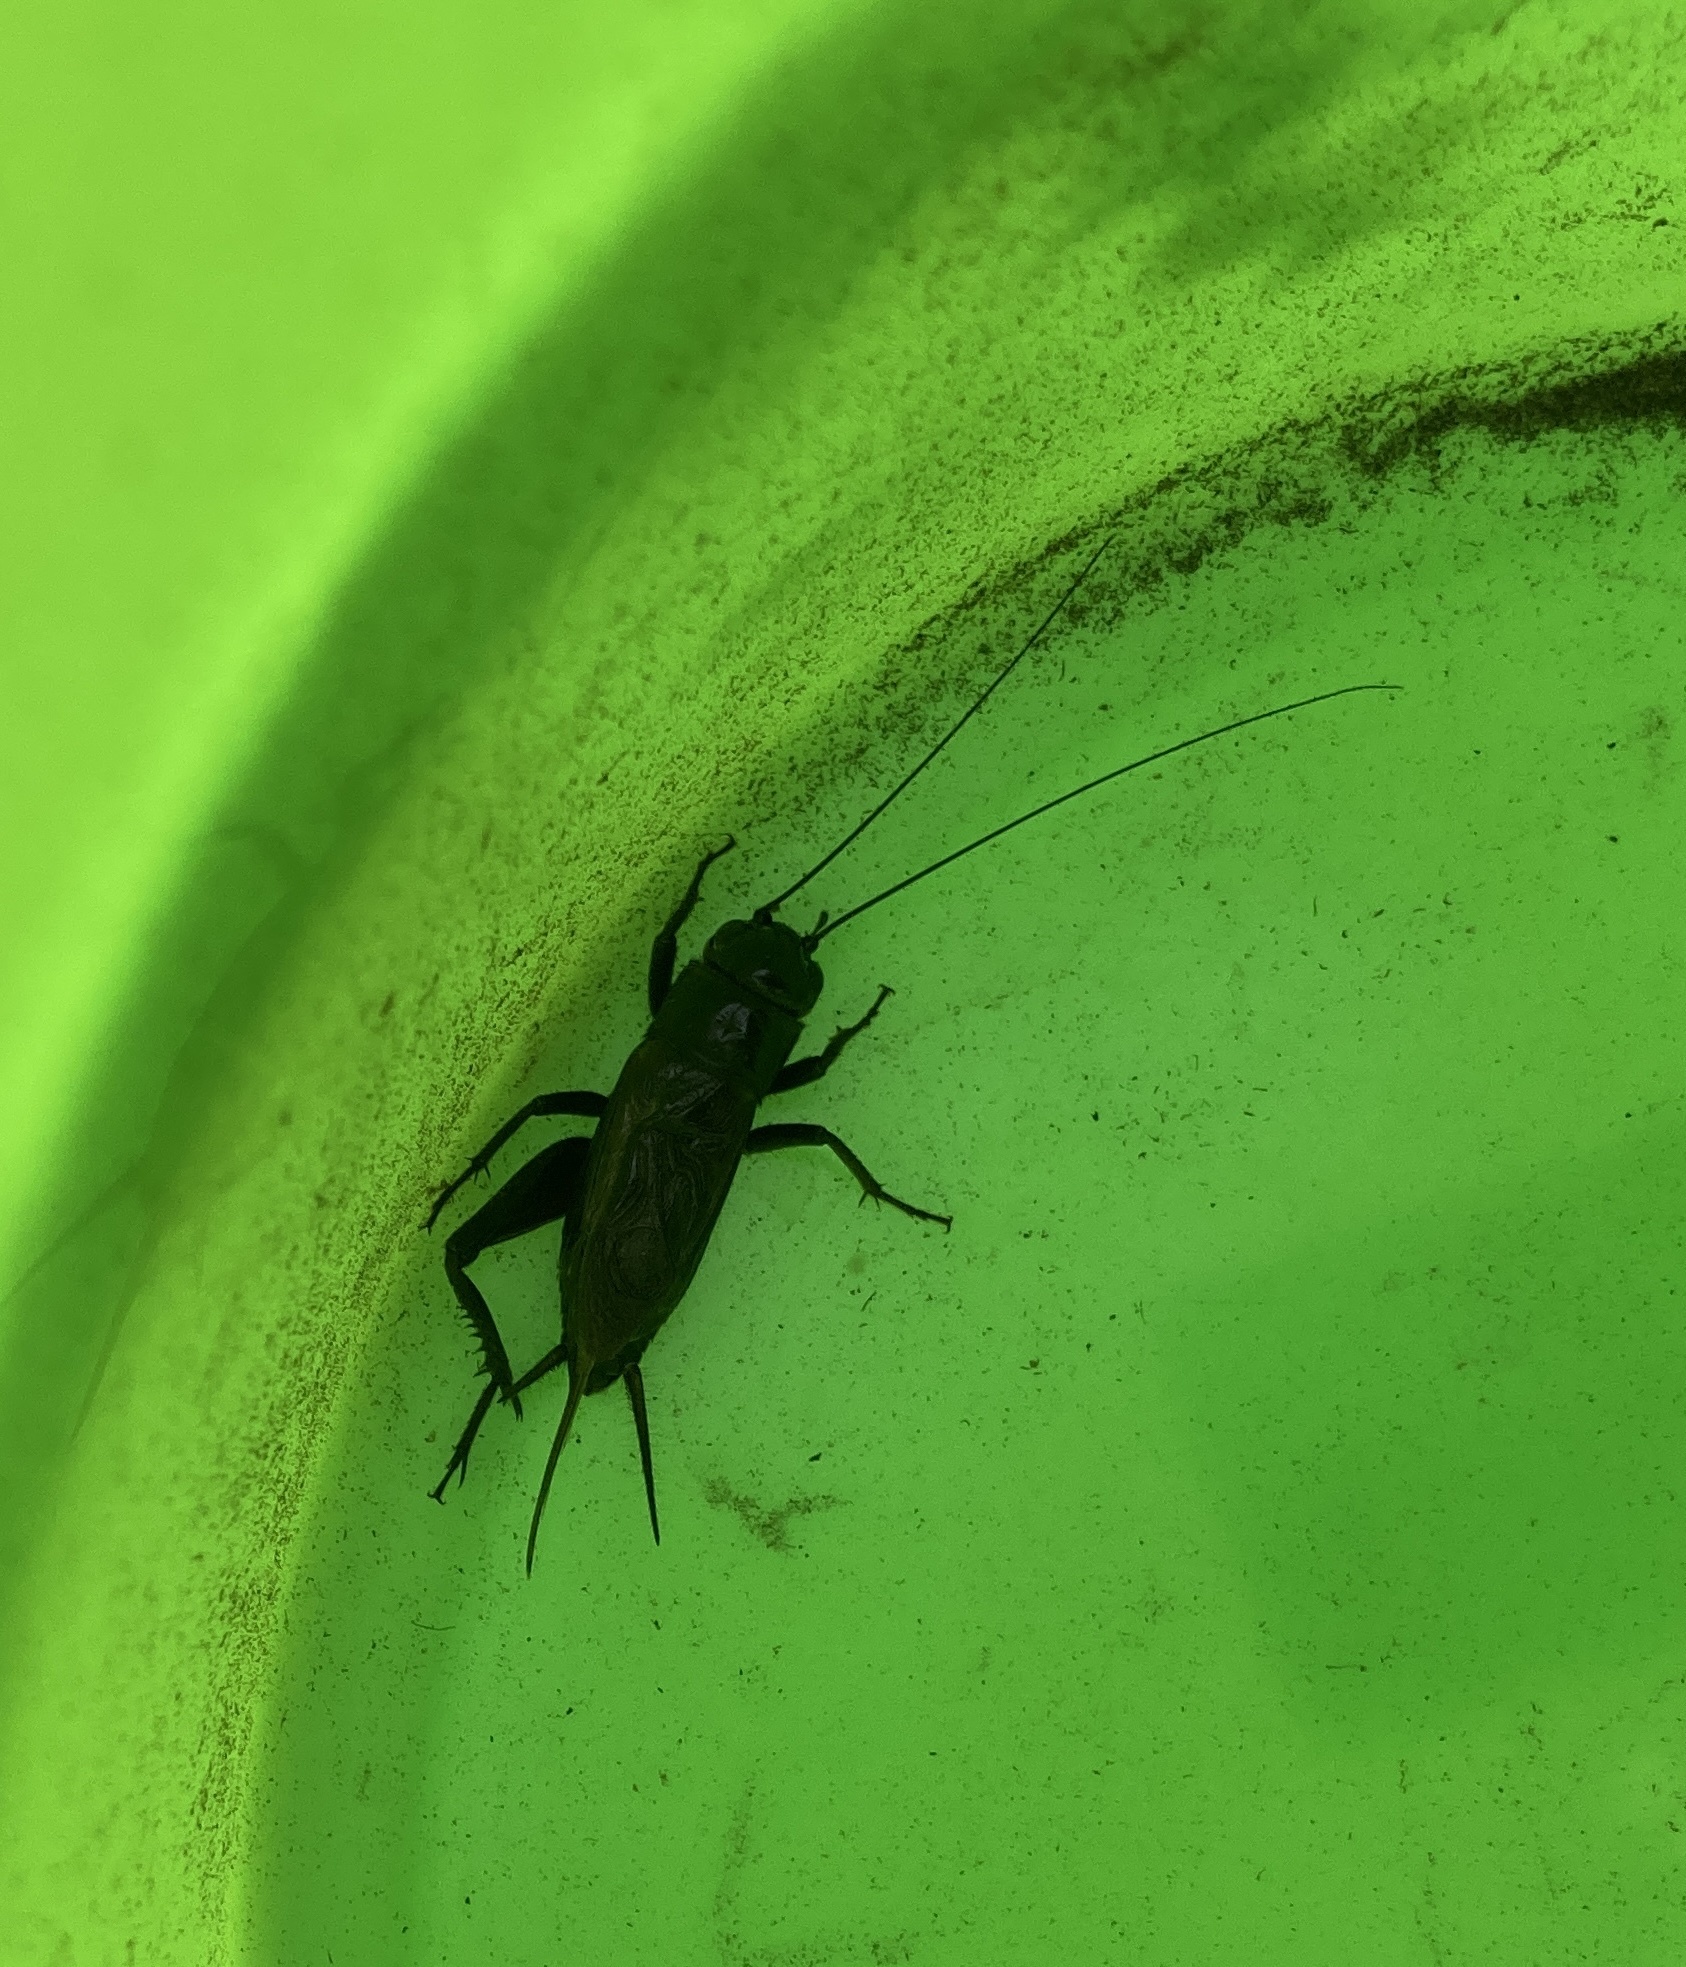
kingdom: Animalia
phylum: Arthropoda
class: Insecta
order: Orthoptera
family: Gryllidae
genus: Teleogryllus
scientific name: Teleogryllus commodus
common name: Black field cricket
